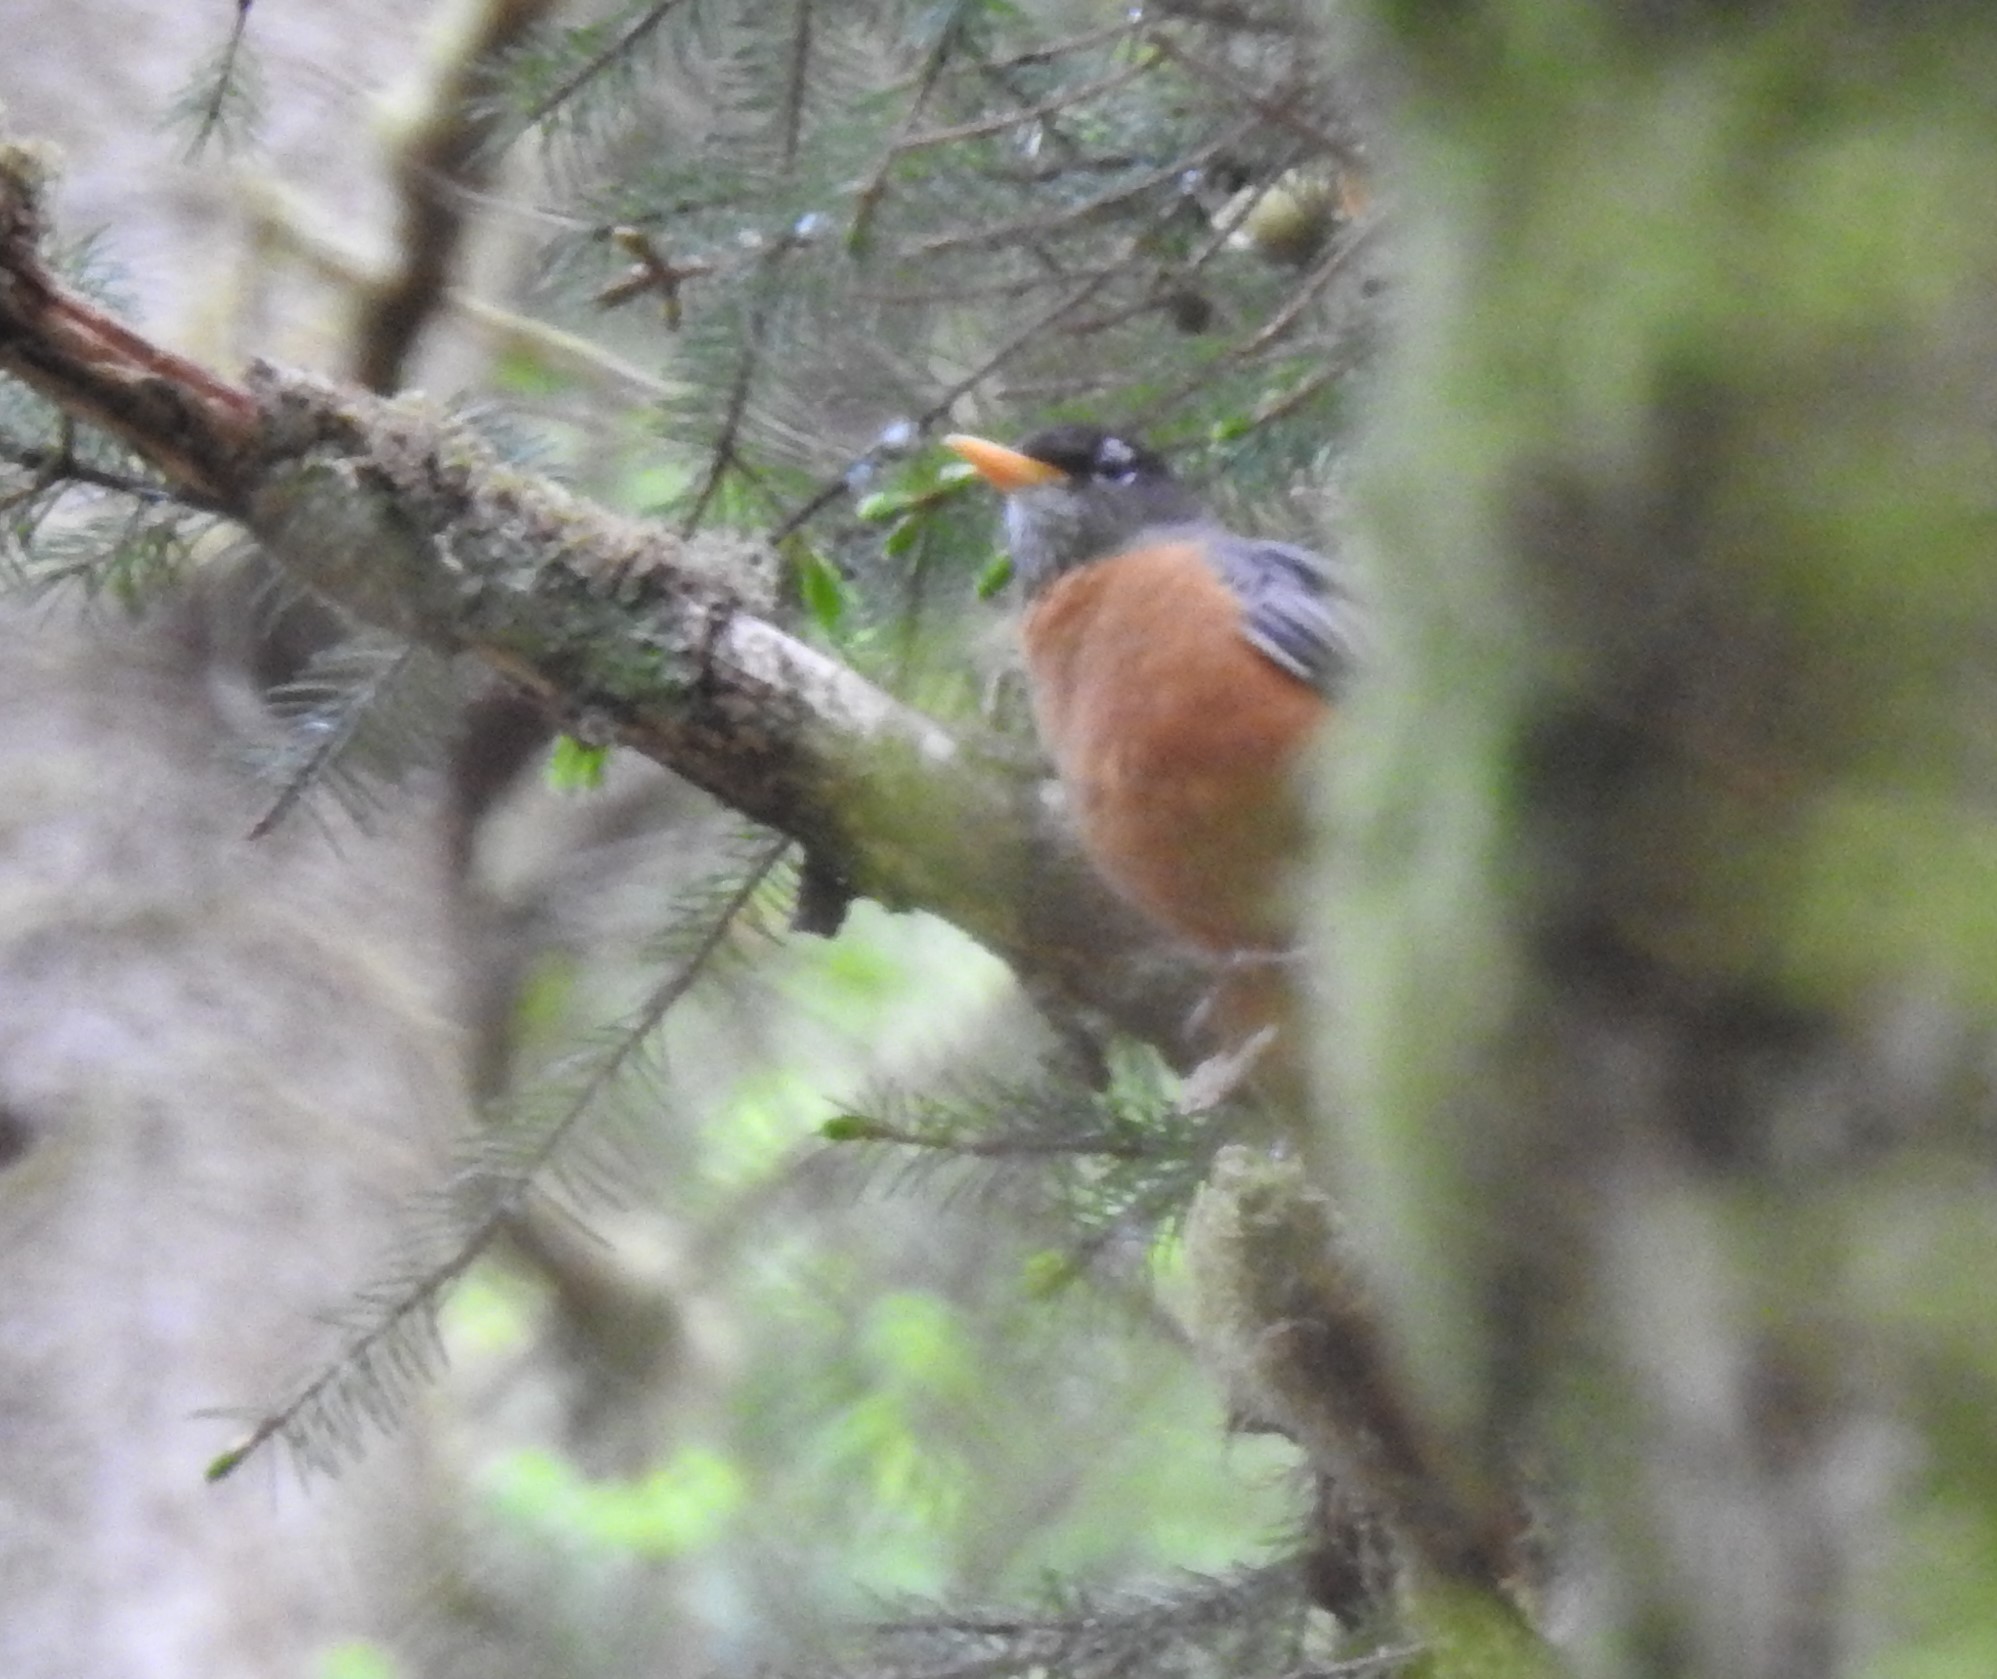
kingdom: Animalia
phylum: Chordata
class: Aves
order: Passeriformes
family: Turdidae
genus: Turdus
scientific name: Turdus migratorius
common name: American robin
